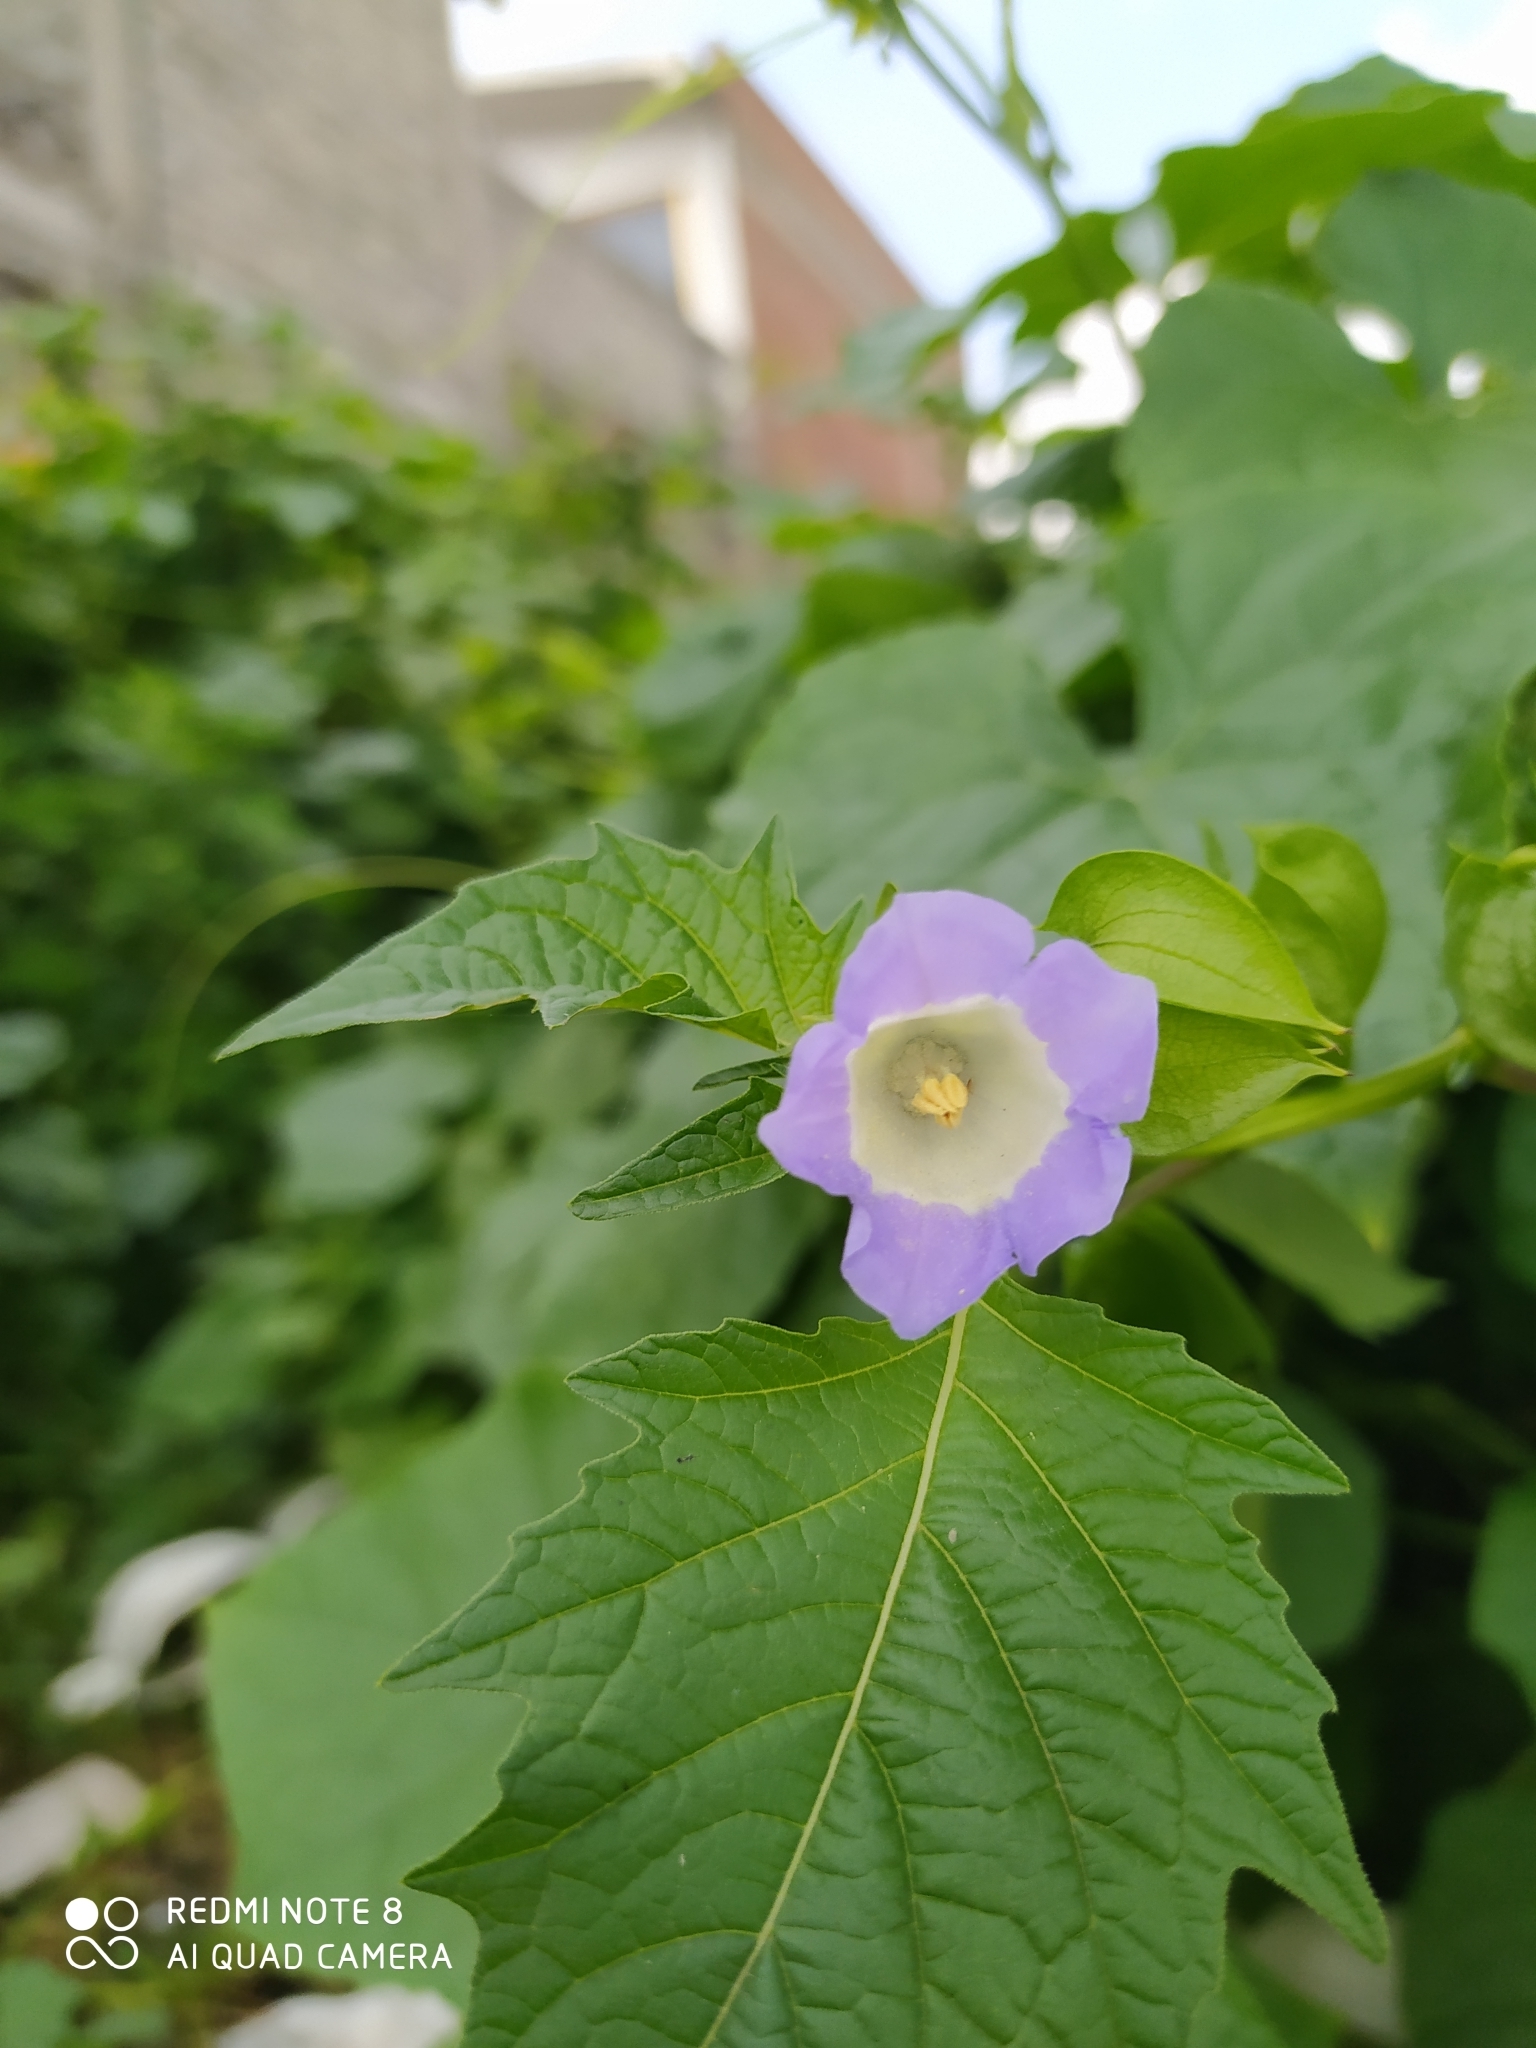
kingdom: Plantae
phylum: Tracheophyta
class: Magnoliopsida
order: Solanales
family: Solanaceae
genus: Nicandra
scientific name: Nicandra physalodes
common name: Apple-of-peru
